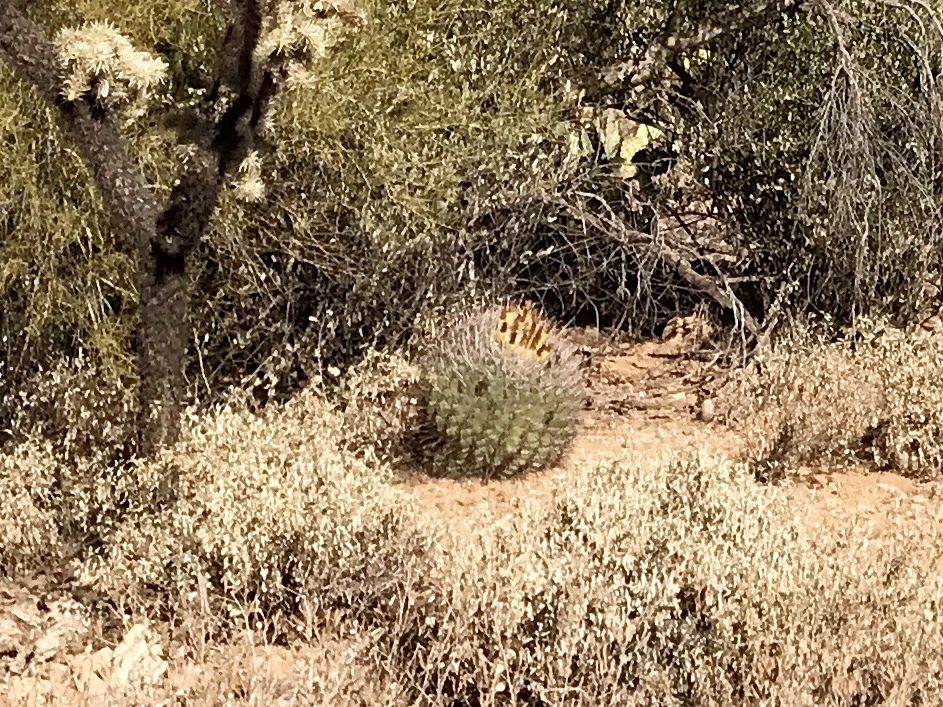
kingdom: Plantae
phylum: Tracheophyta
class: Magnoliopsida
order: Caryophyllales
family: Cactaceae
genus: Ferocactus
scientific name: Ferocactus wislizeni
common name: Candy barrel cactus
